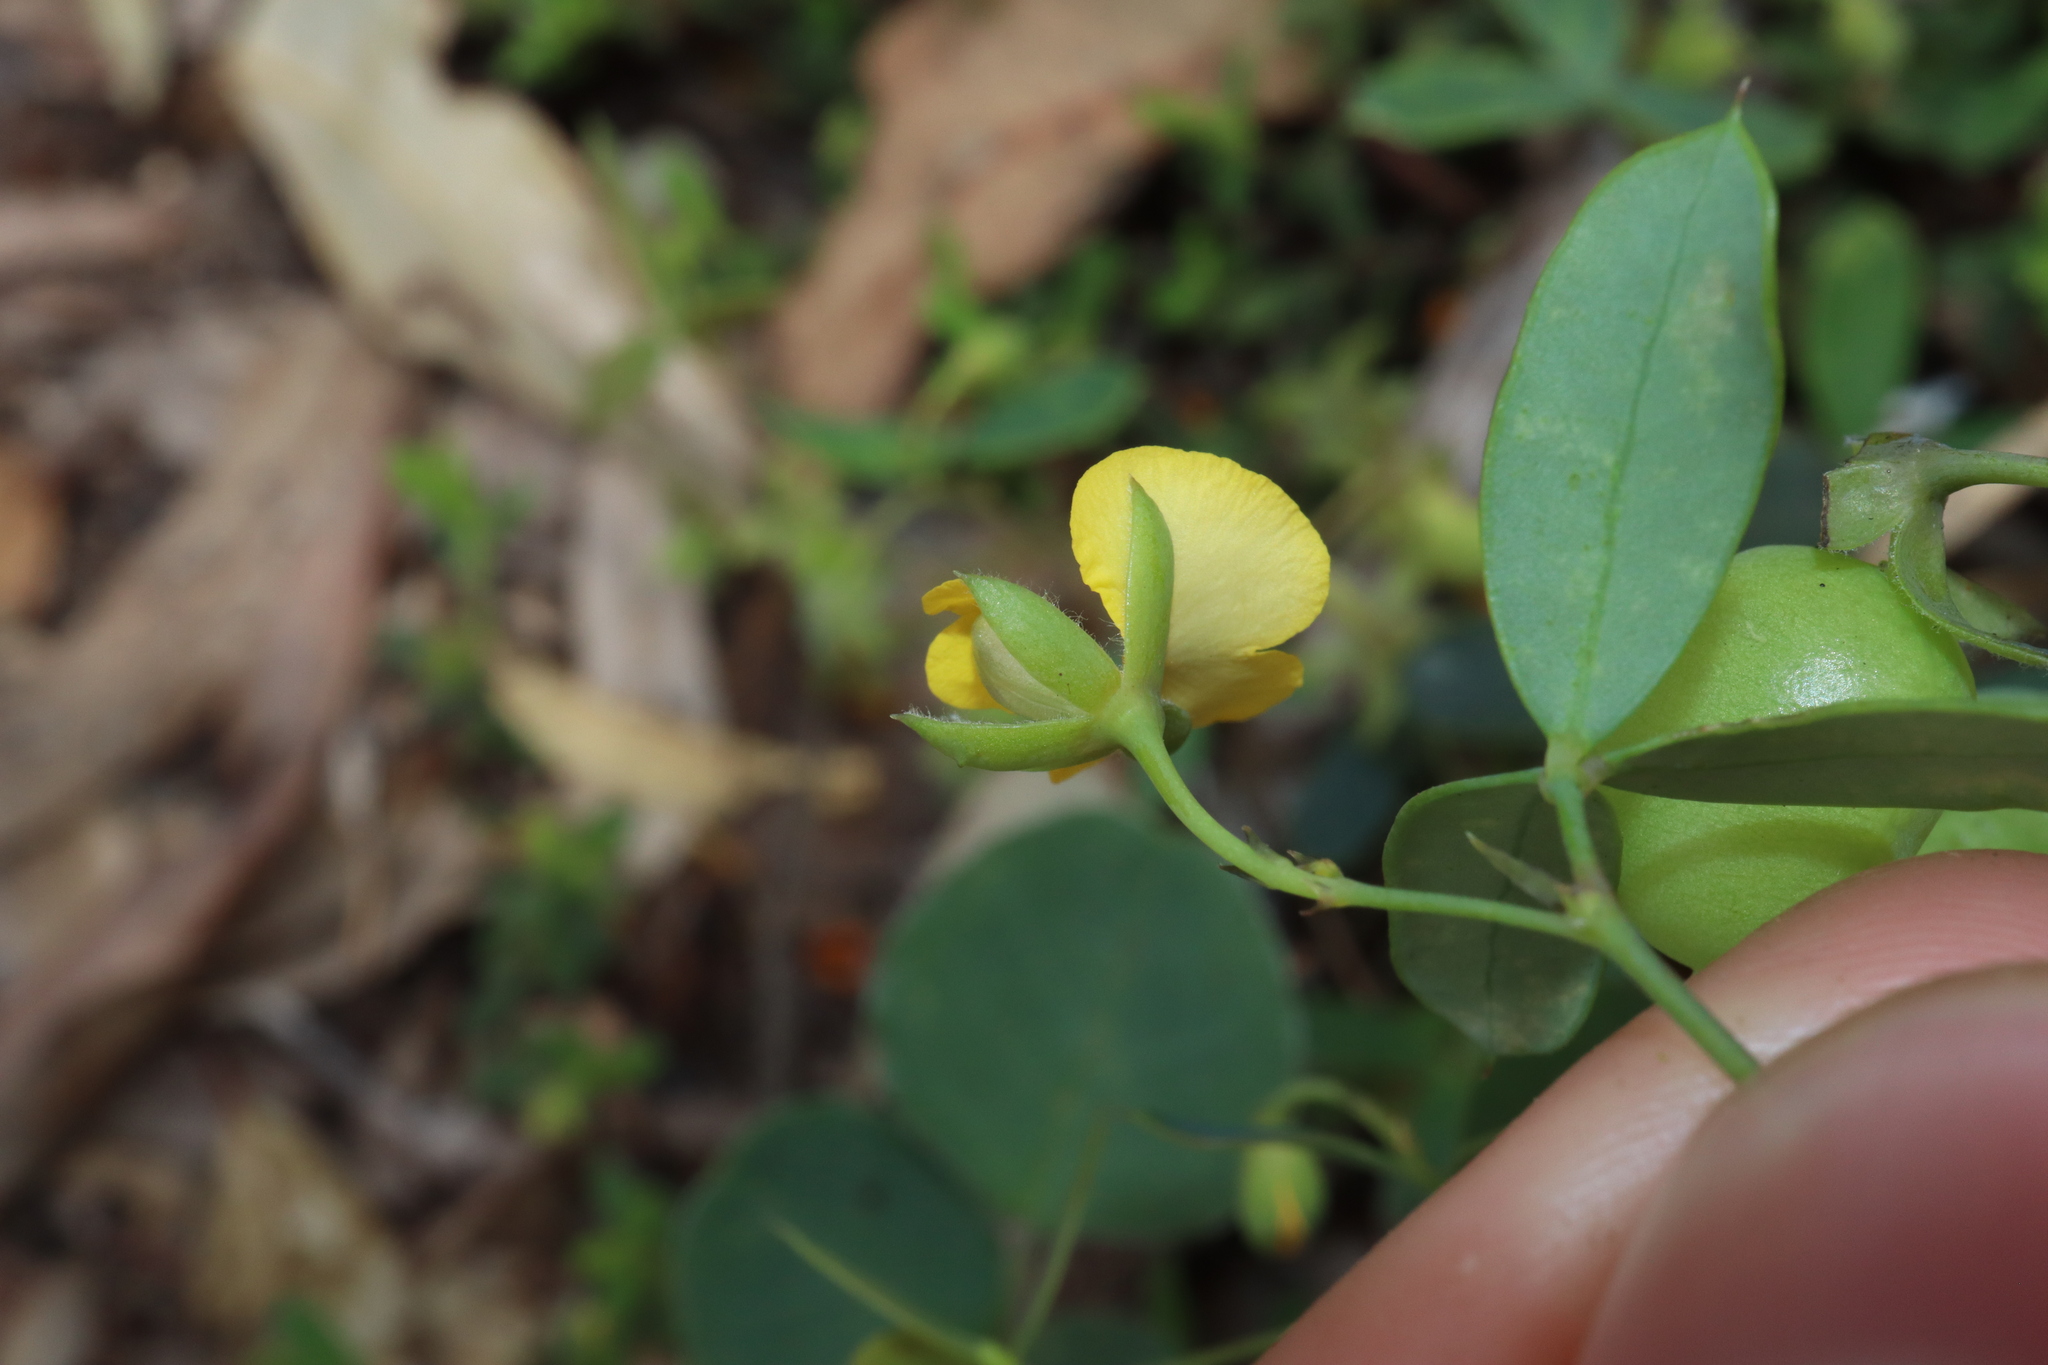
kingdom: Plantae
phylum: Tracheophyta
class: Magnoliopsida
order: Fabales
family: Fabaceae
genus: Gompholobium
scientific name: Gompholobium marginatum
